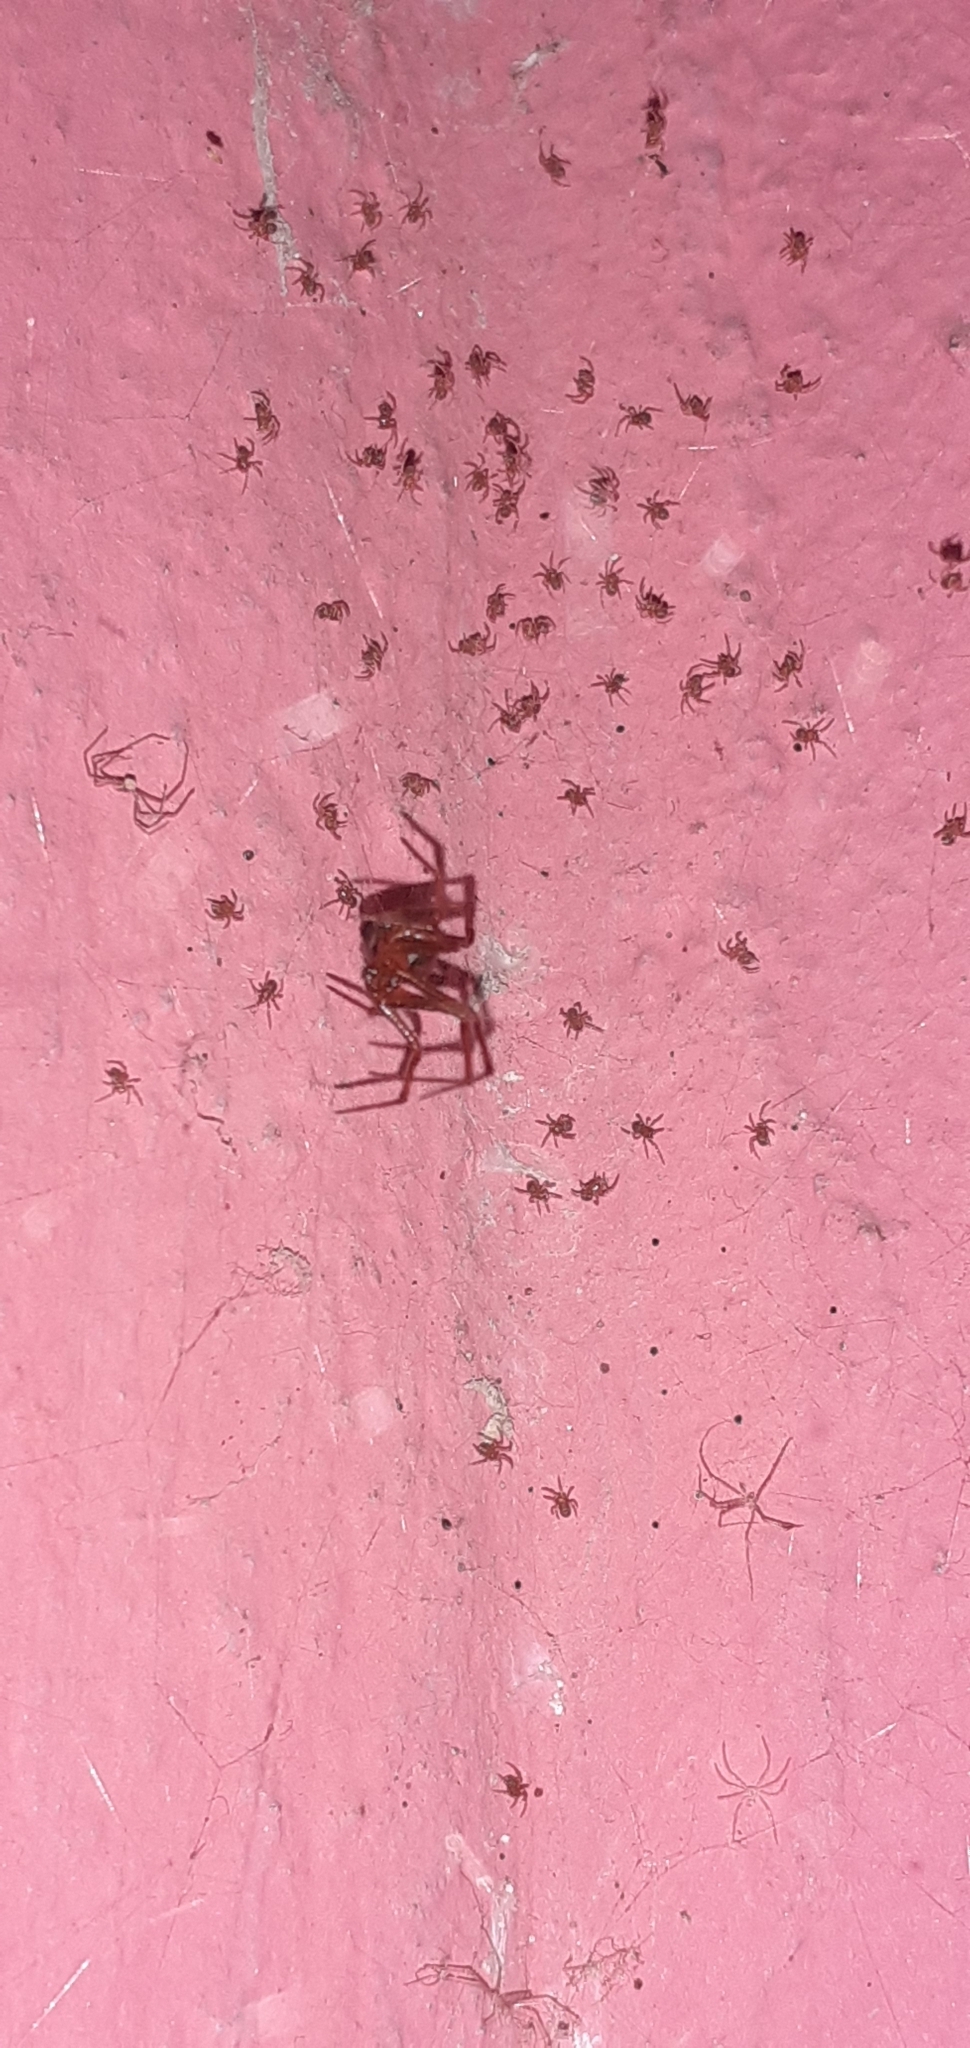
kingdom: Animalia
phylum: Arthropoda
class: Arachnida
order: Araneae
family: Theridiidae
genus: Nesticodes
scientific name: Nesticodes rufipes
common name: Cobweb spiders
